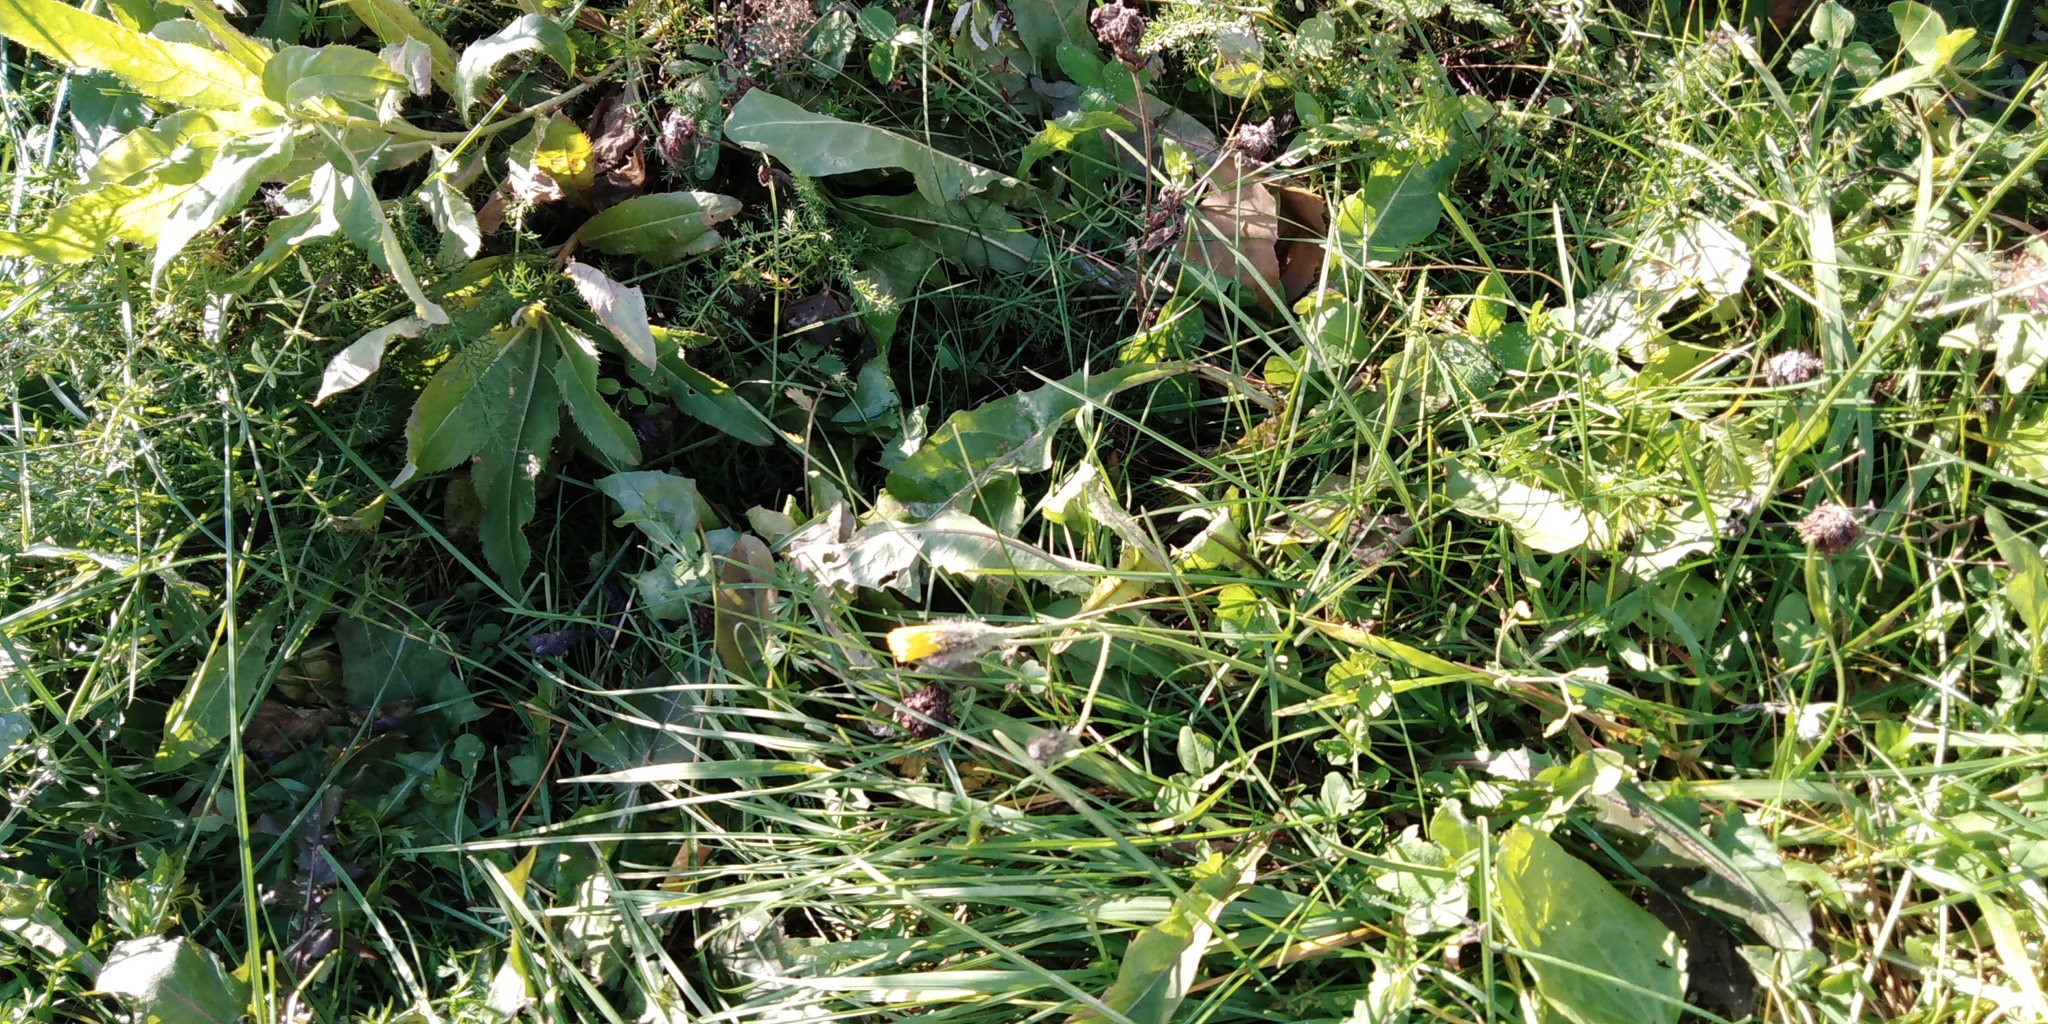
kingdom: Plantae
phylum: Tracheophyta
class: Magnoliopsida
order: Asterales
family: Asteraceae
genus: Scorzoneroides
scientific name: Scorzoneroides autumnalis
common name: Autumn hawkbit
